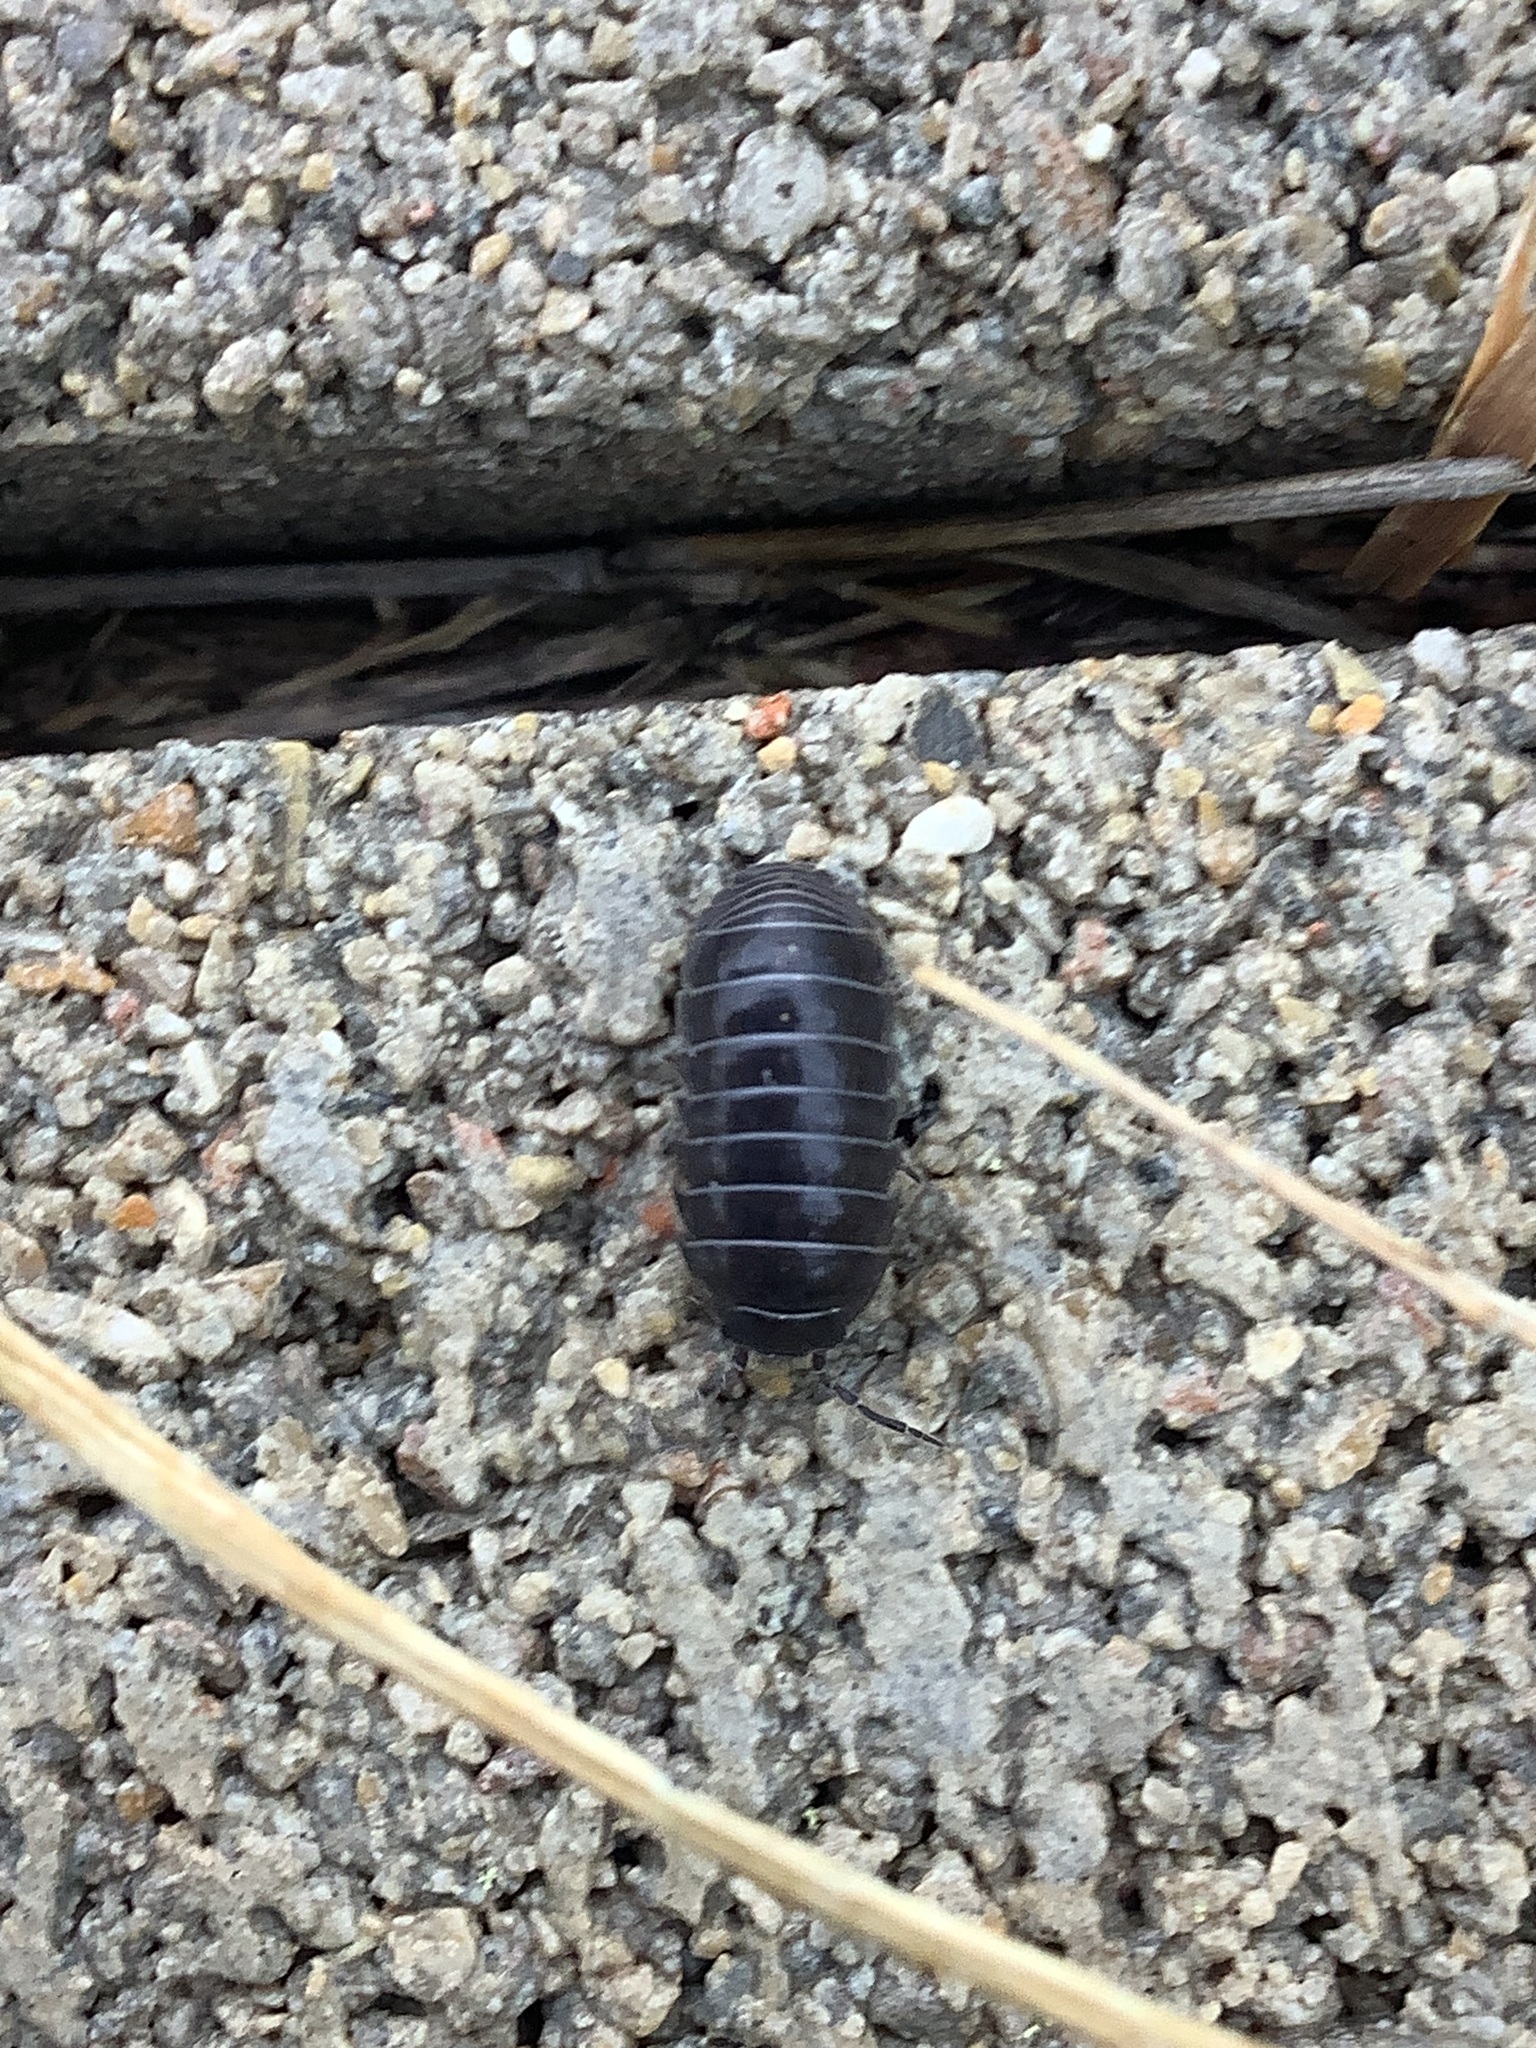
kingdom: Animalia
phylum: Arthropoda
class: Malacostraca
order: Isopoda
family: Armadillidiidae
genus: Armadillidium
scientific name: Armadillidium vulgare
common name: Common pill woodlouse
